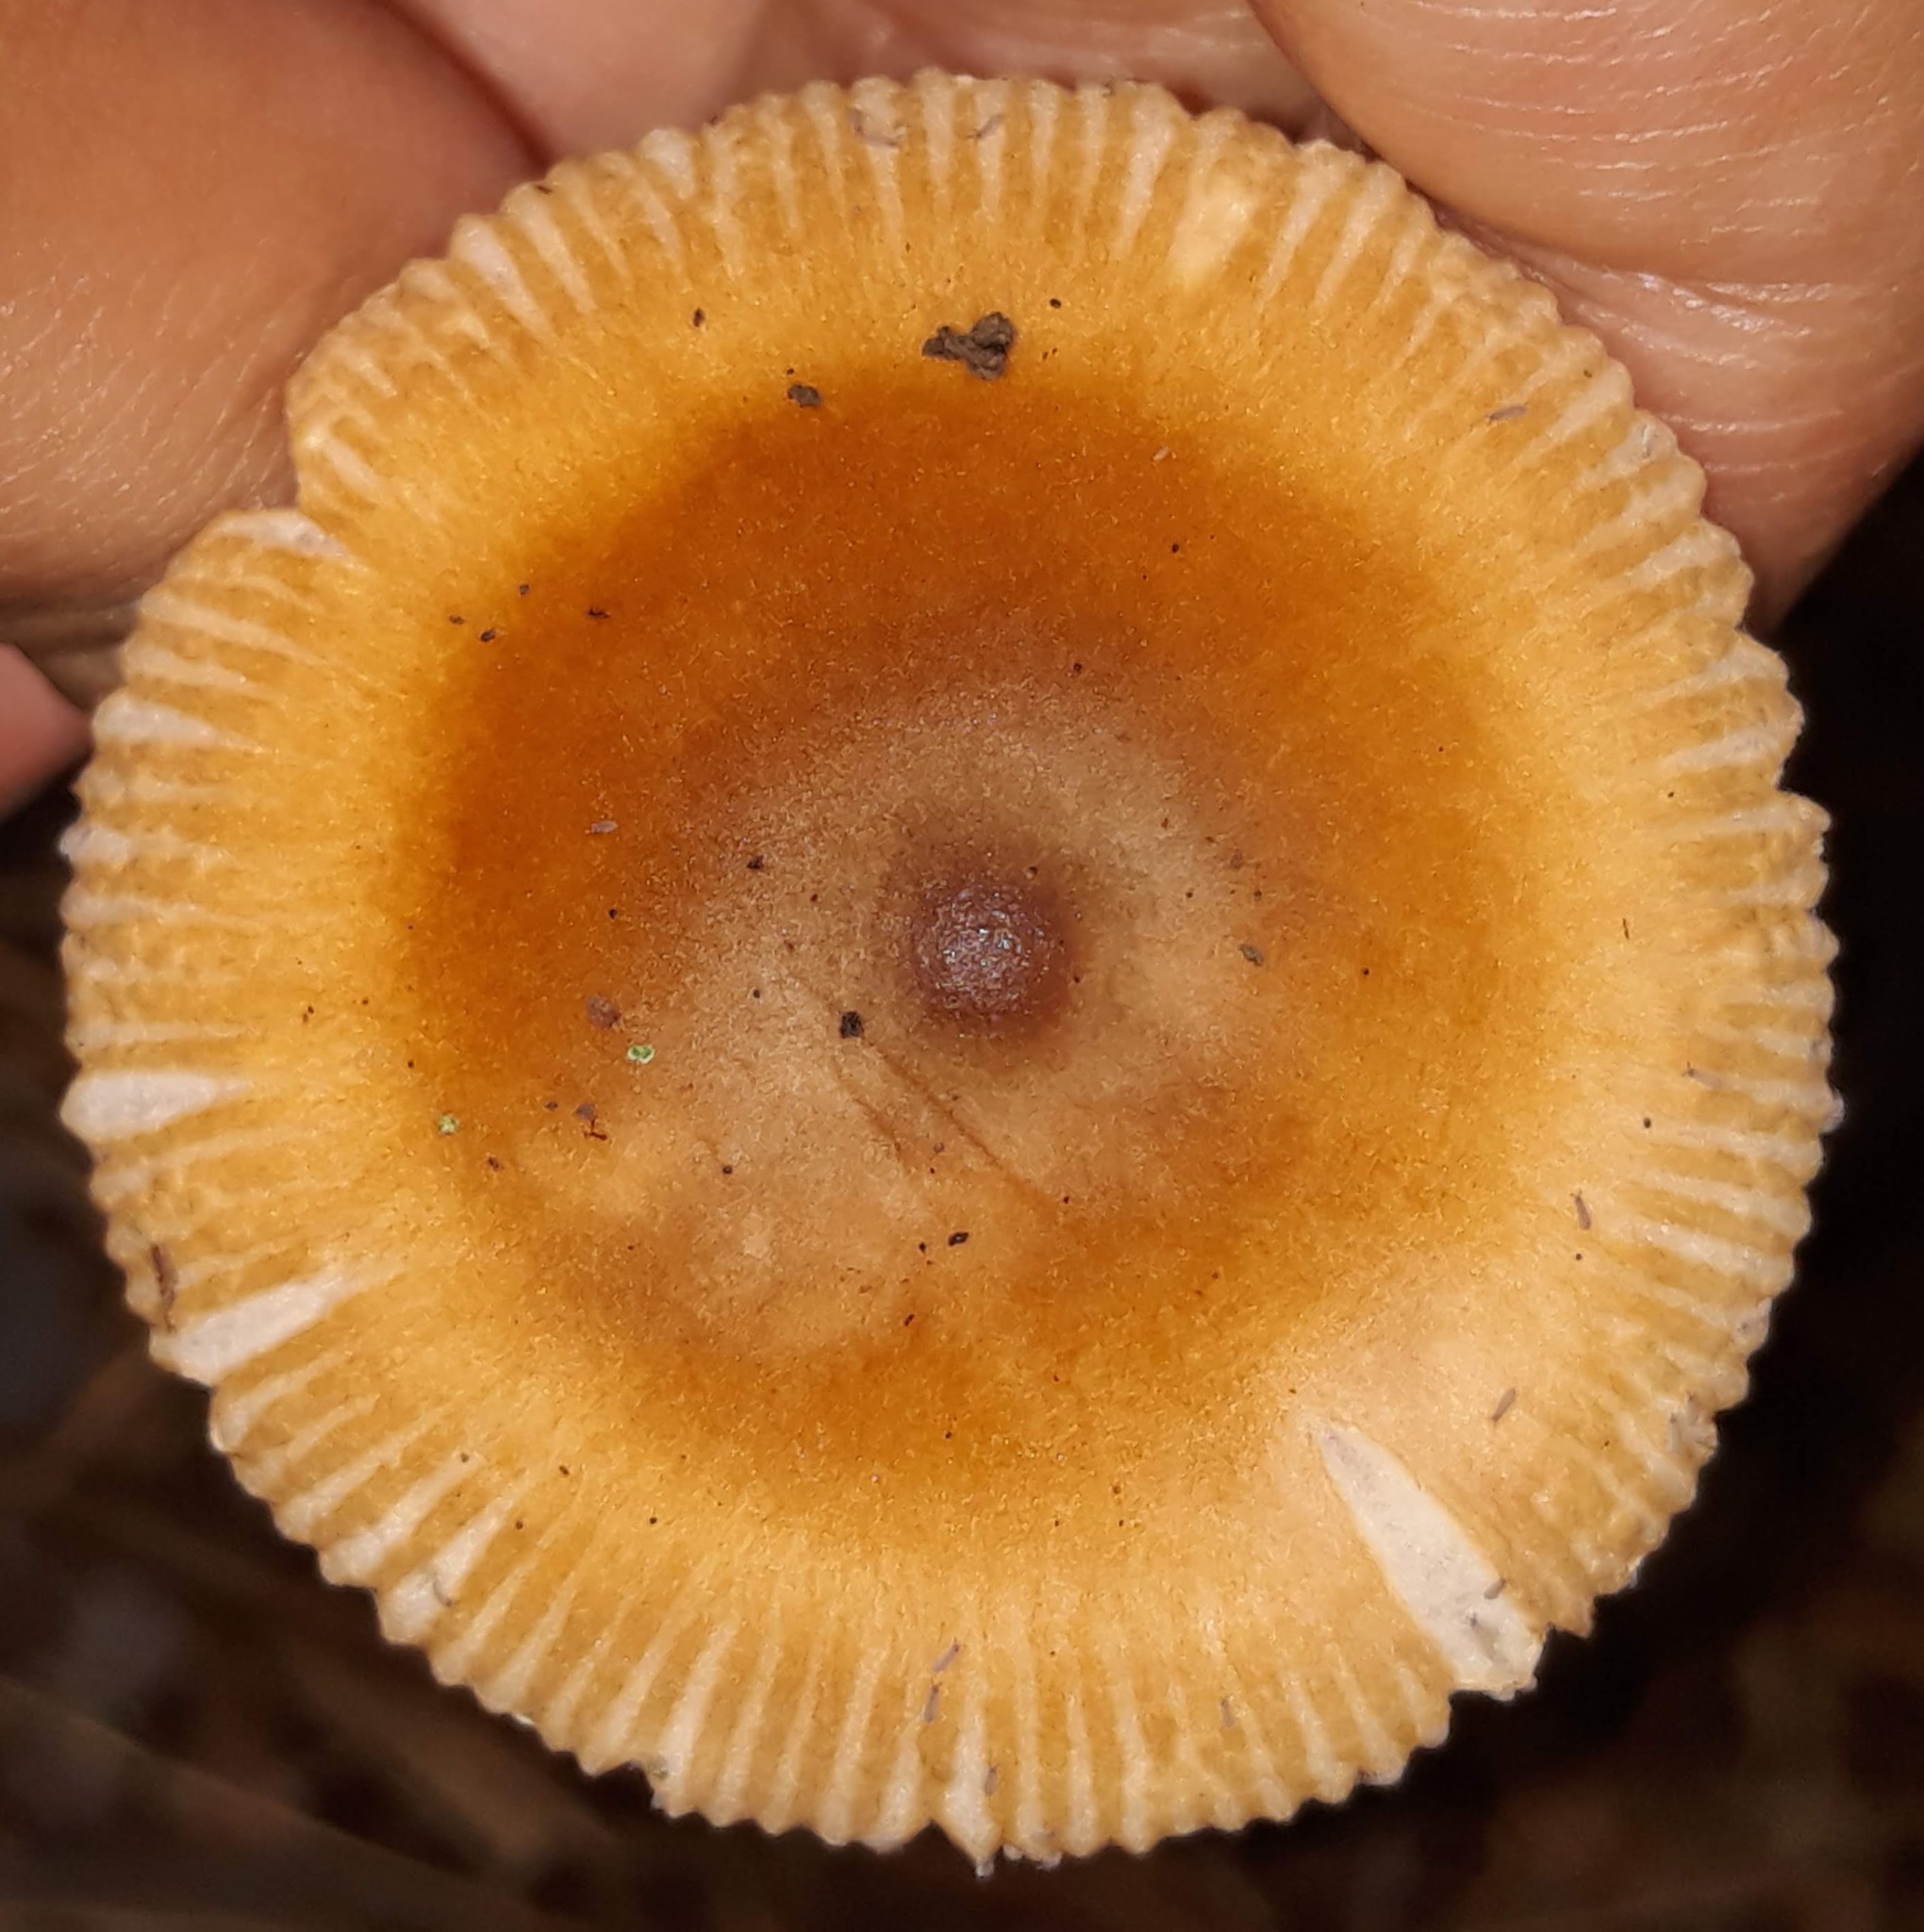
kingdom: Fungi
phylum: Basidiomycota
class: Agaricomycetes
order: Agaricales
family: Amanitaceae
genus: Amanita
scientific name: Amanita fulva
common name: Tawny grisette
